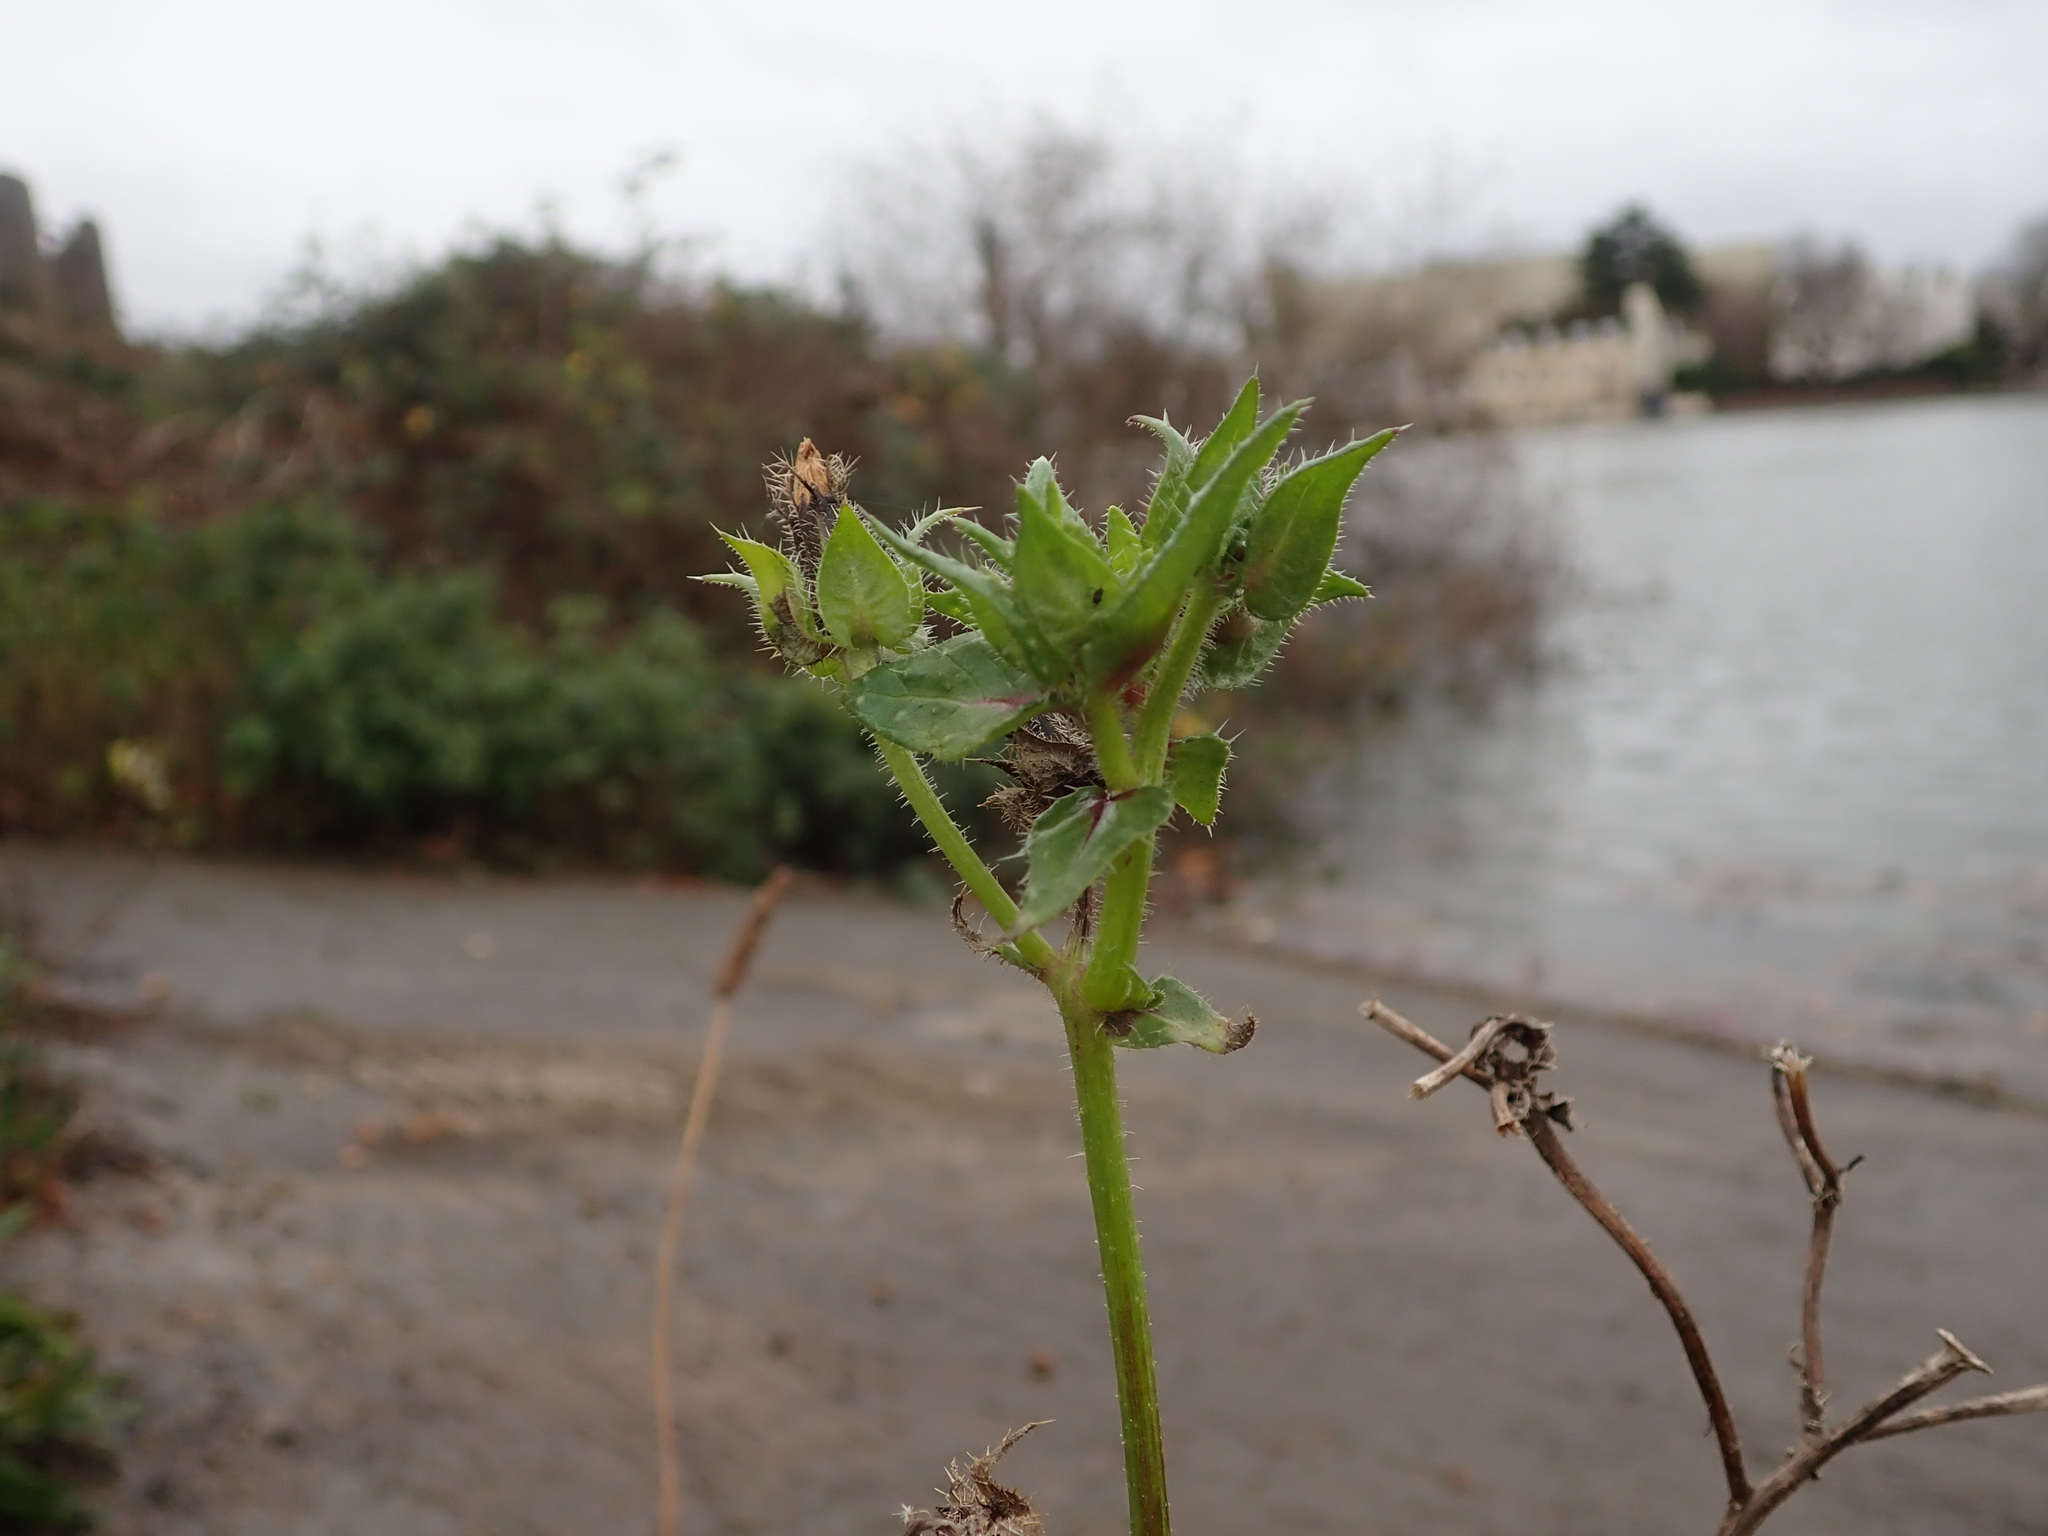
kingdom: Plantae
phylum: Tracheophyta
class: Magnoliopsida
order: Asterales
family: Asteraceae
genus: Helminthotheca
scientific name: Helminthotheca echioides
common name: Ox-tongue
